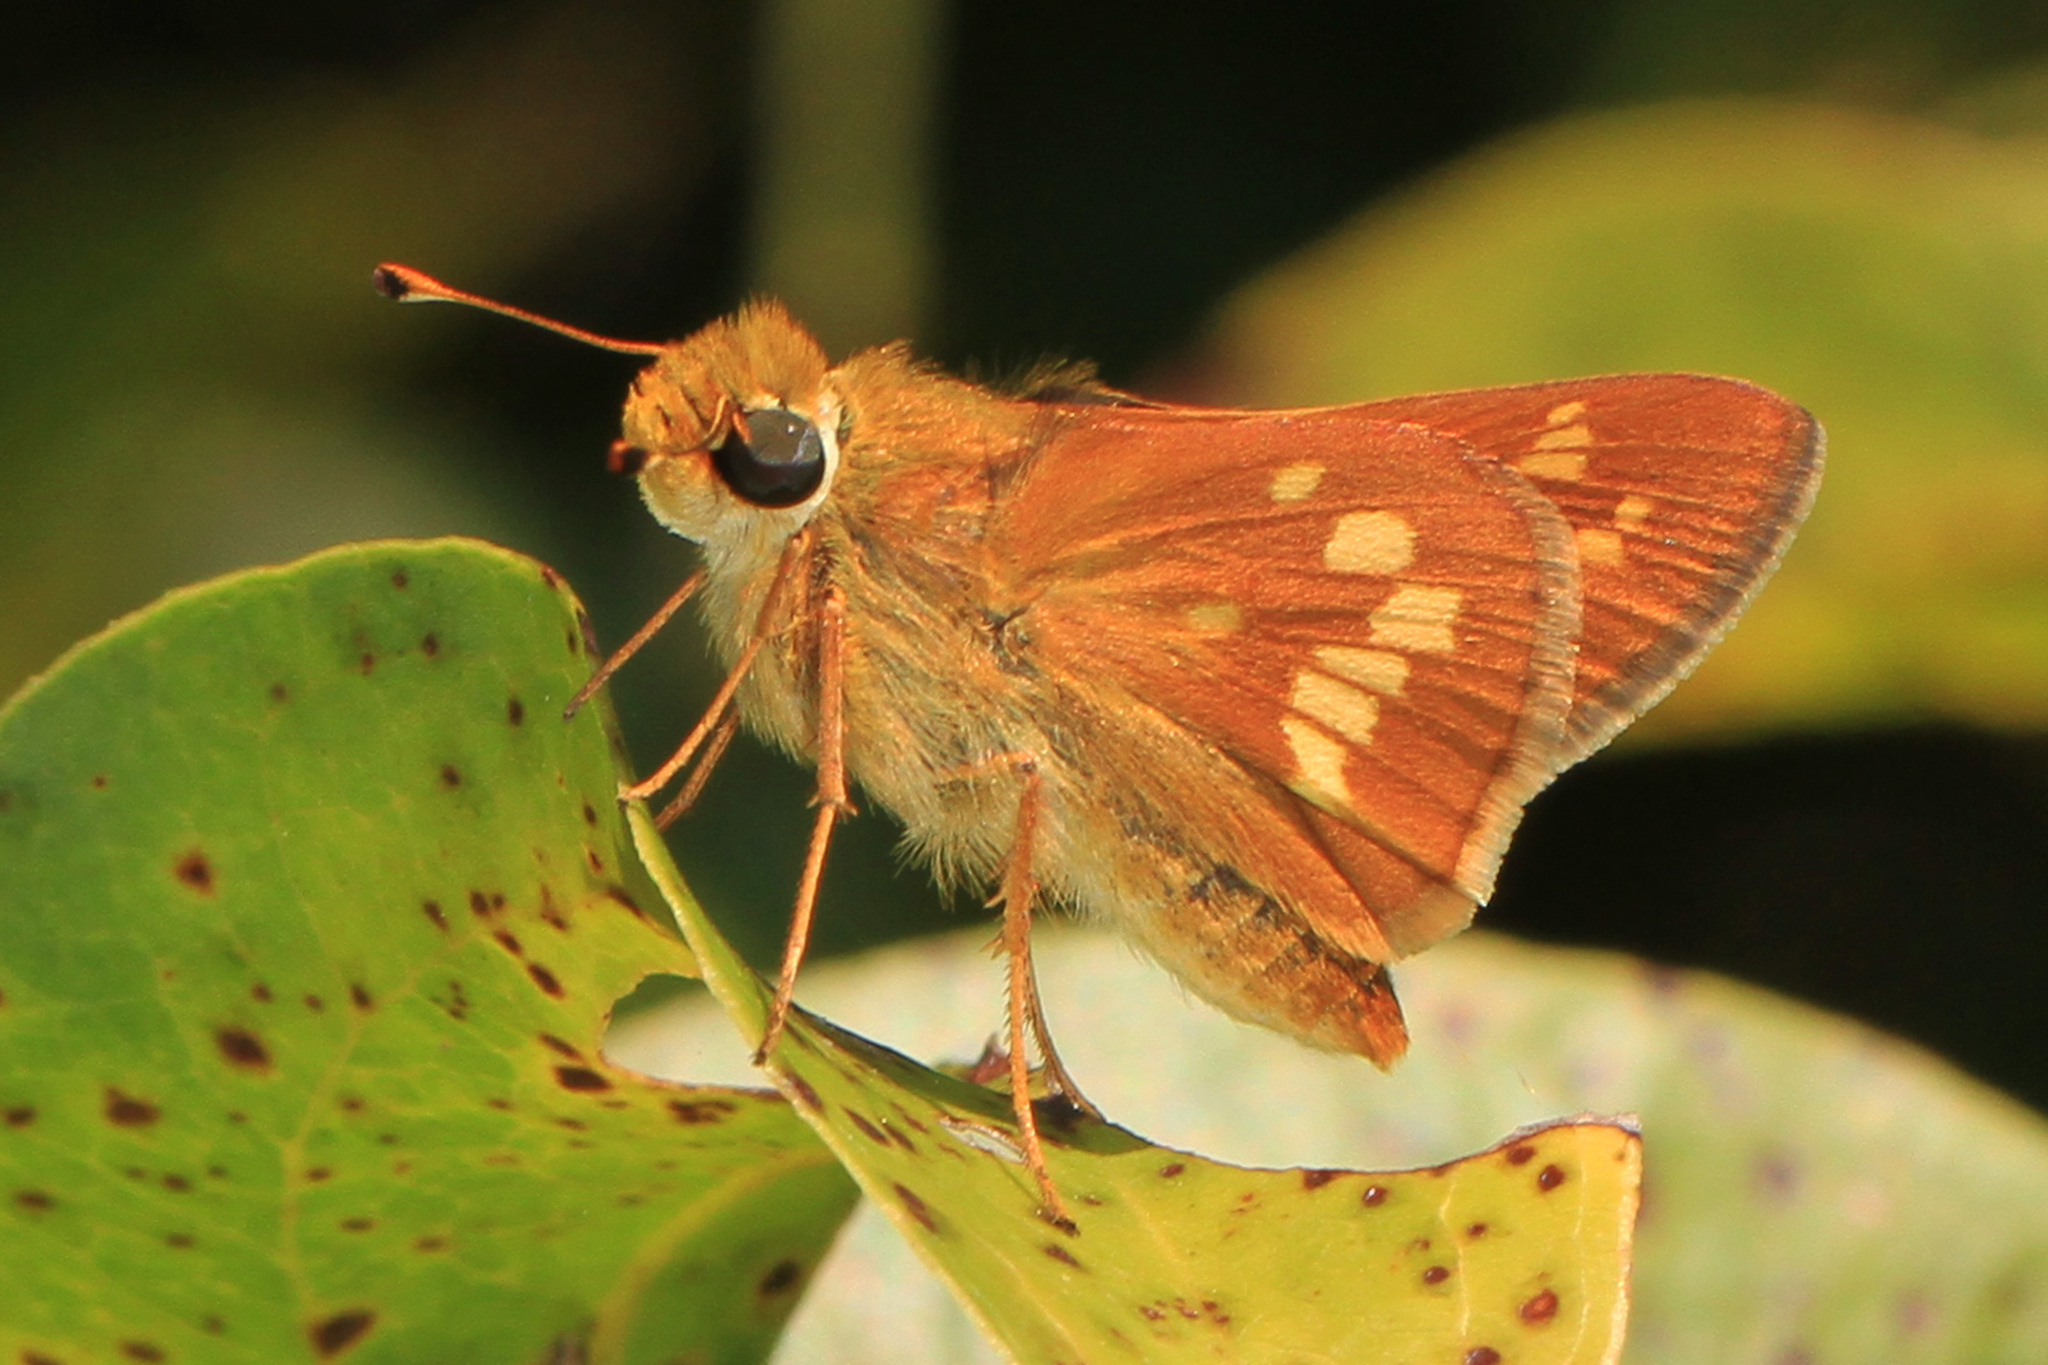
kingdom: Animalia
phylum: Arthropoda
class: Insecta
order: Lepidoptera
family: Hesperiidae
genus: Hesperia
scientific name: Hesperia leonardus
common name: Leonard's skipper
